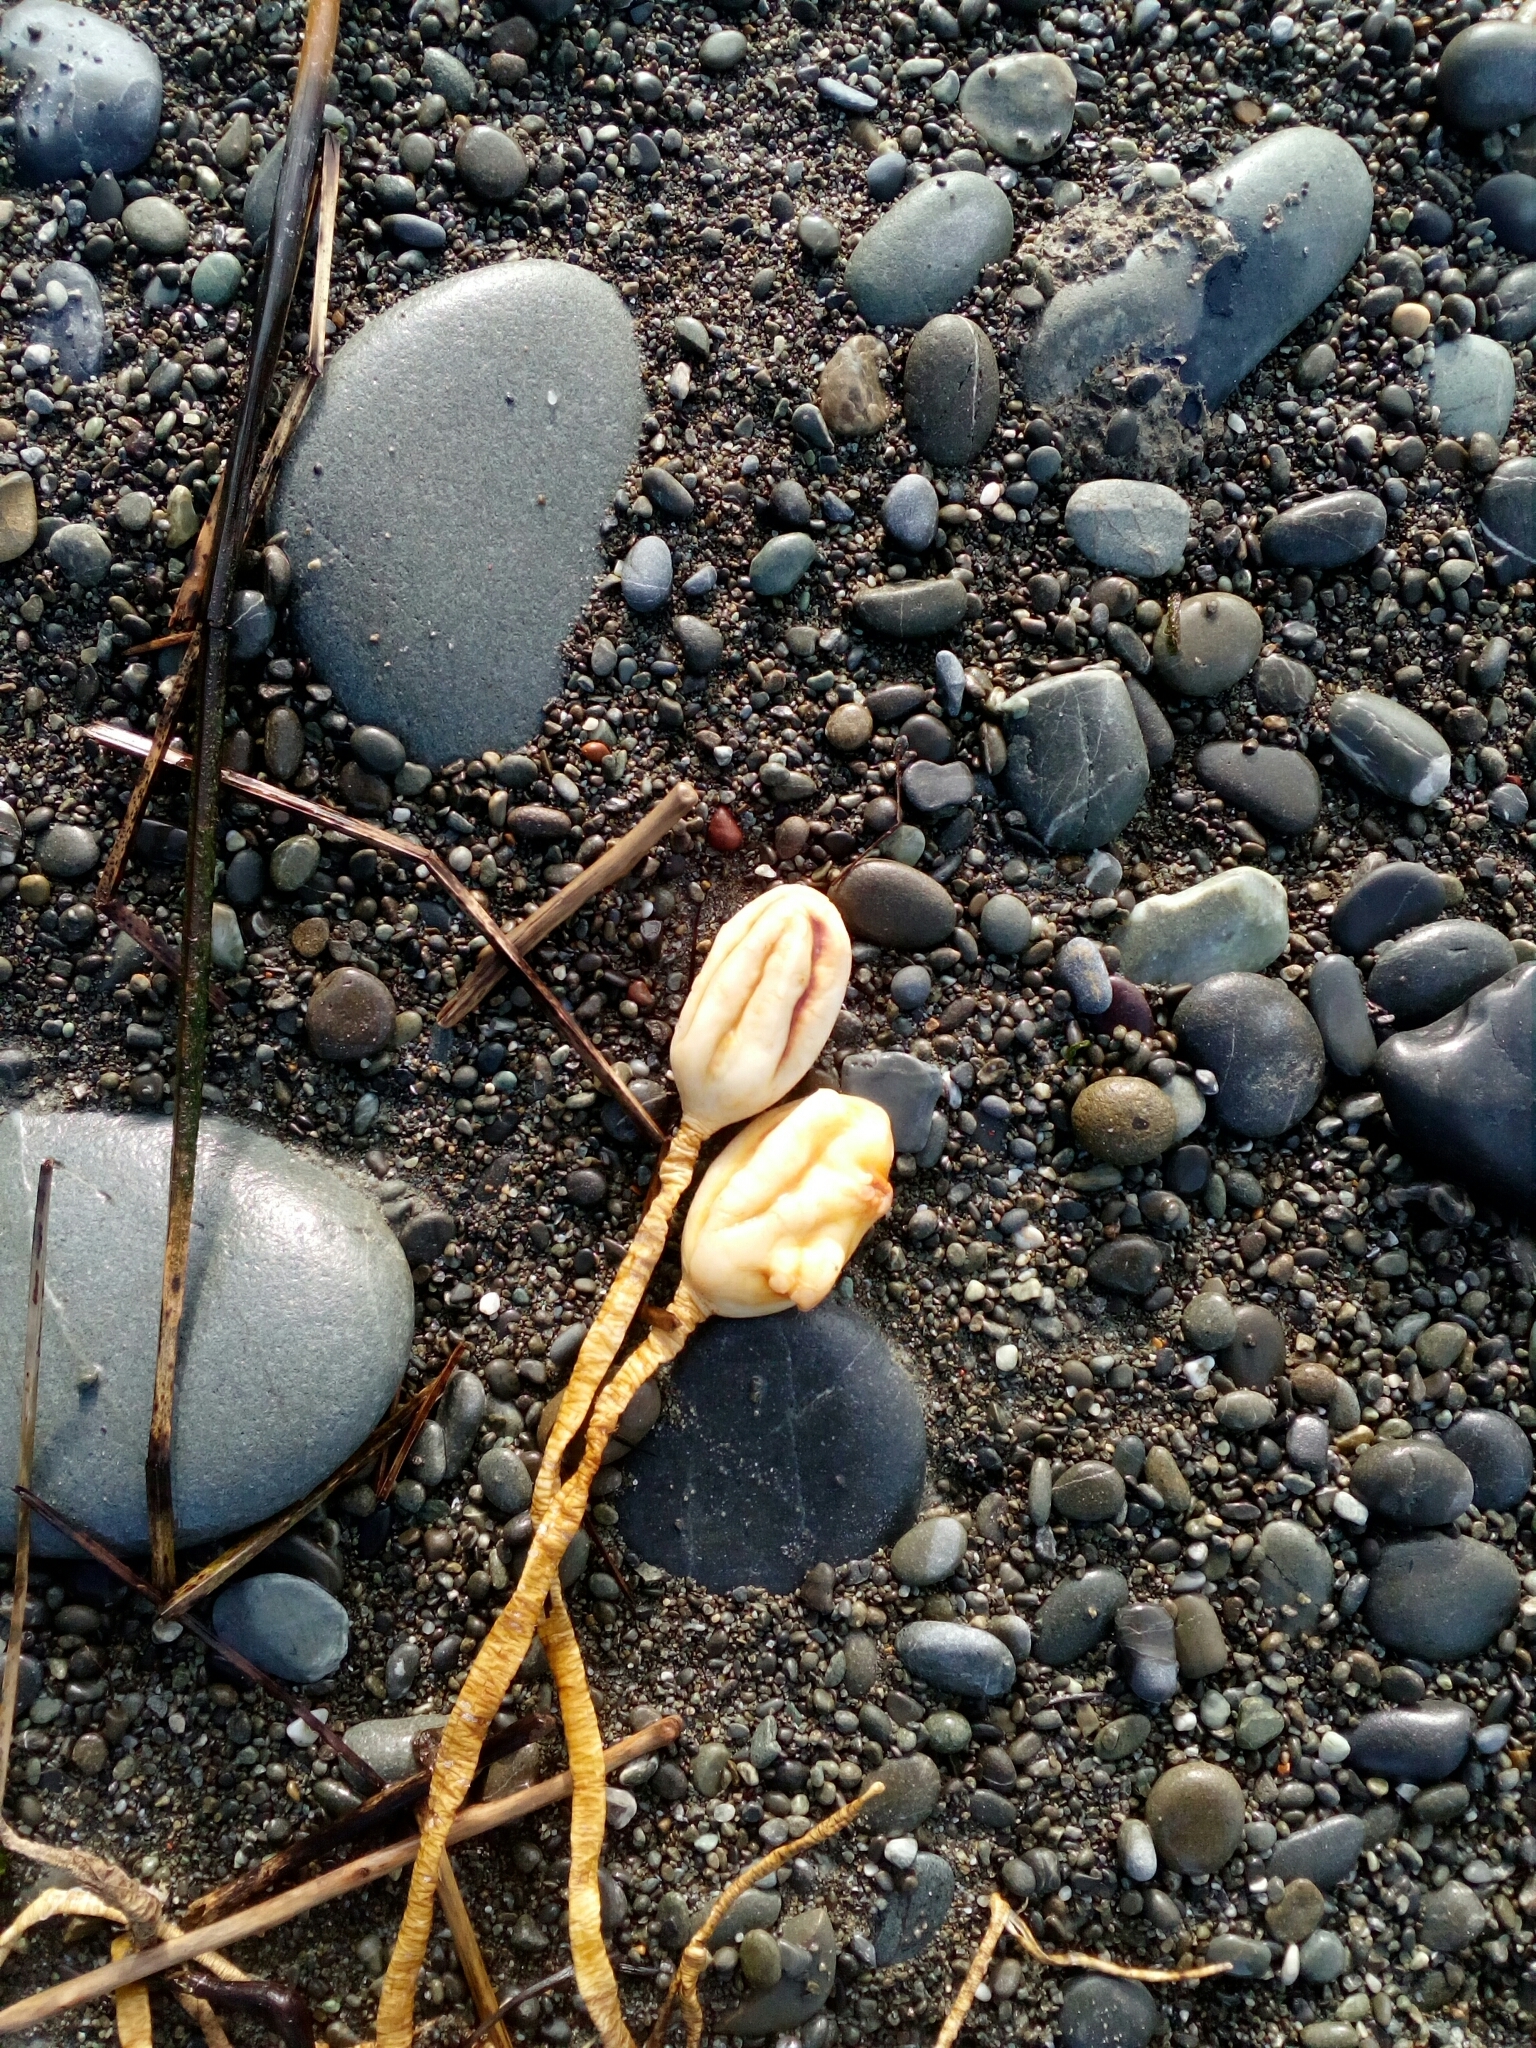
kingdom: Animalia
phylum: Chordata
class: Ascidiacea
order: Stolidobranchia
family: Pyuridae
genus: Pyura
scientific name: Pyura pachydermatina
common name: Sea tulip
